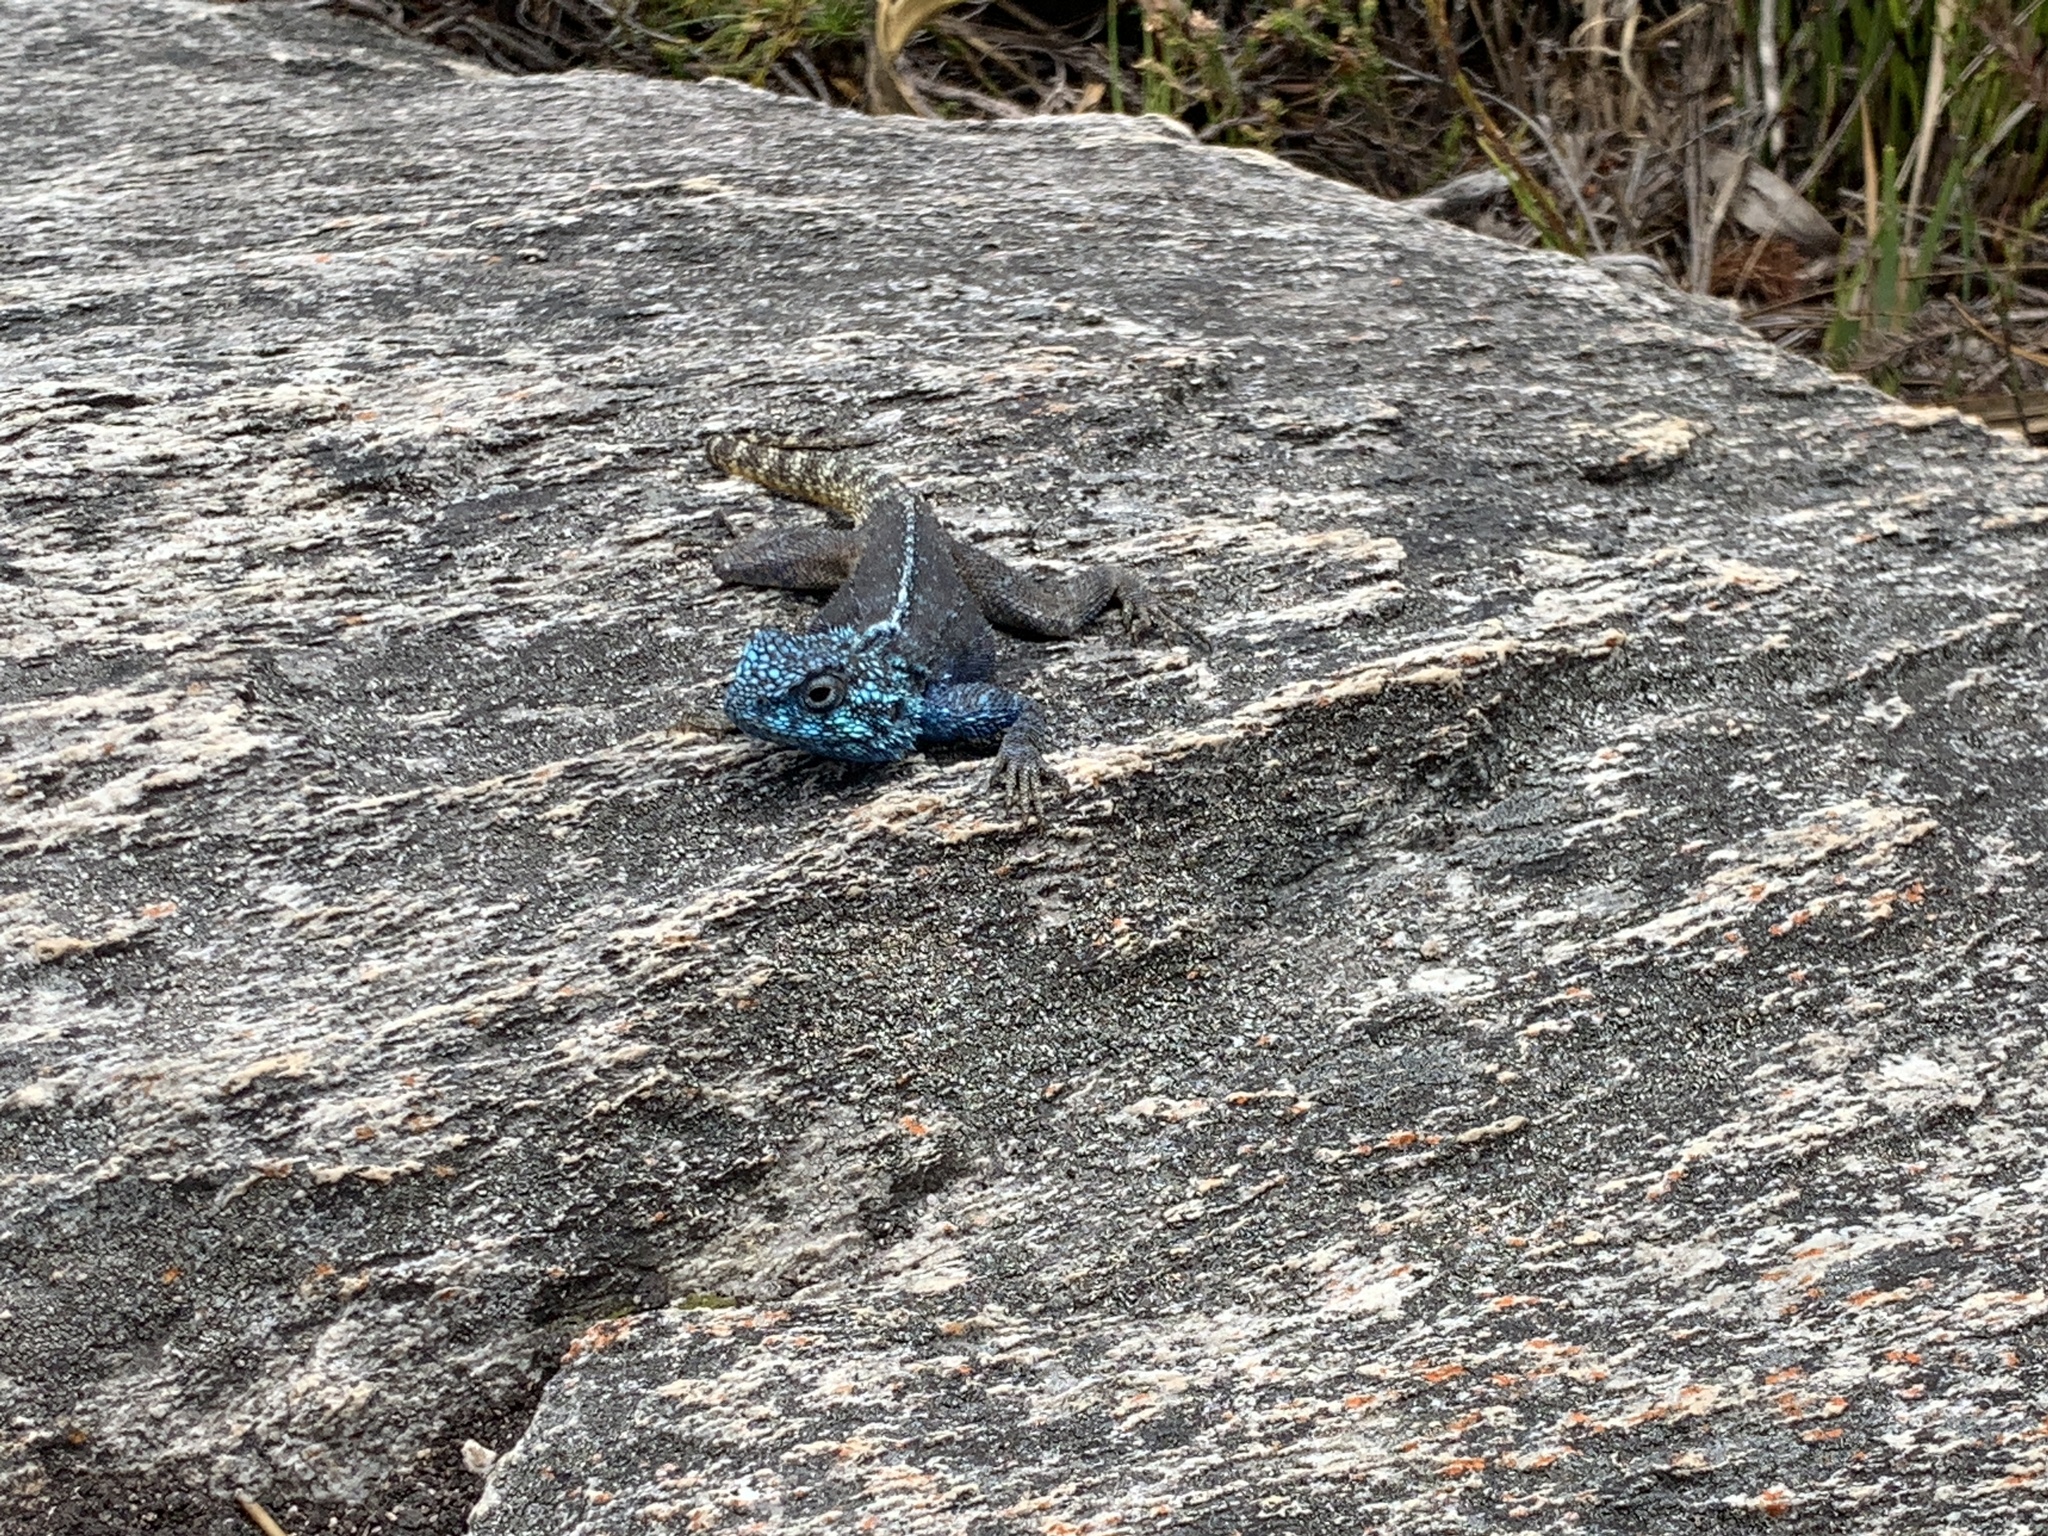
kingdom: Animalia
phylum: Chordata
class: Squamata
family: Agamidae
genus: Agama
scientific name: Agama atra
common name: Southern african rock agama
